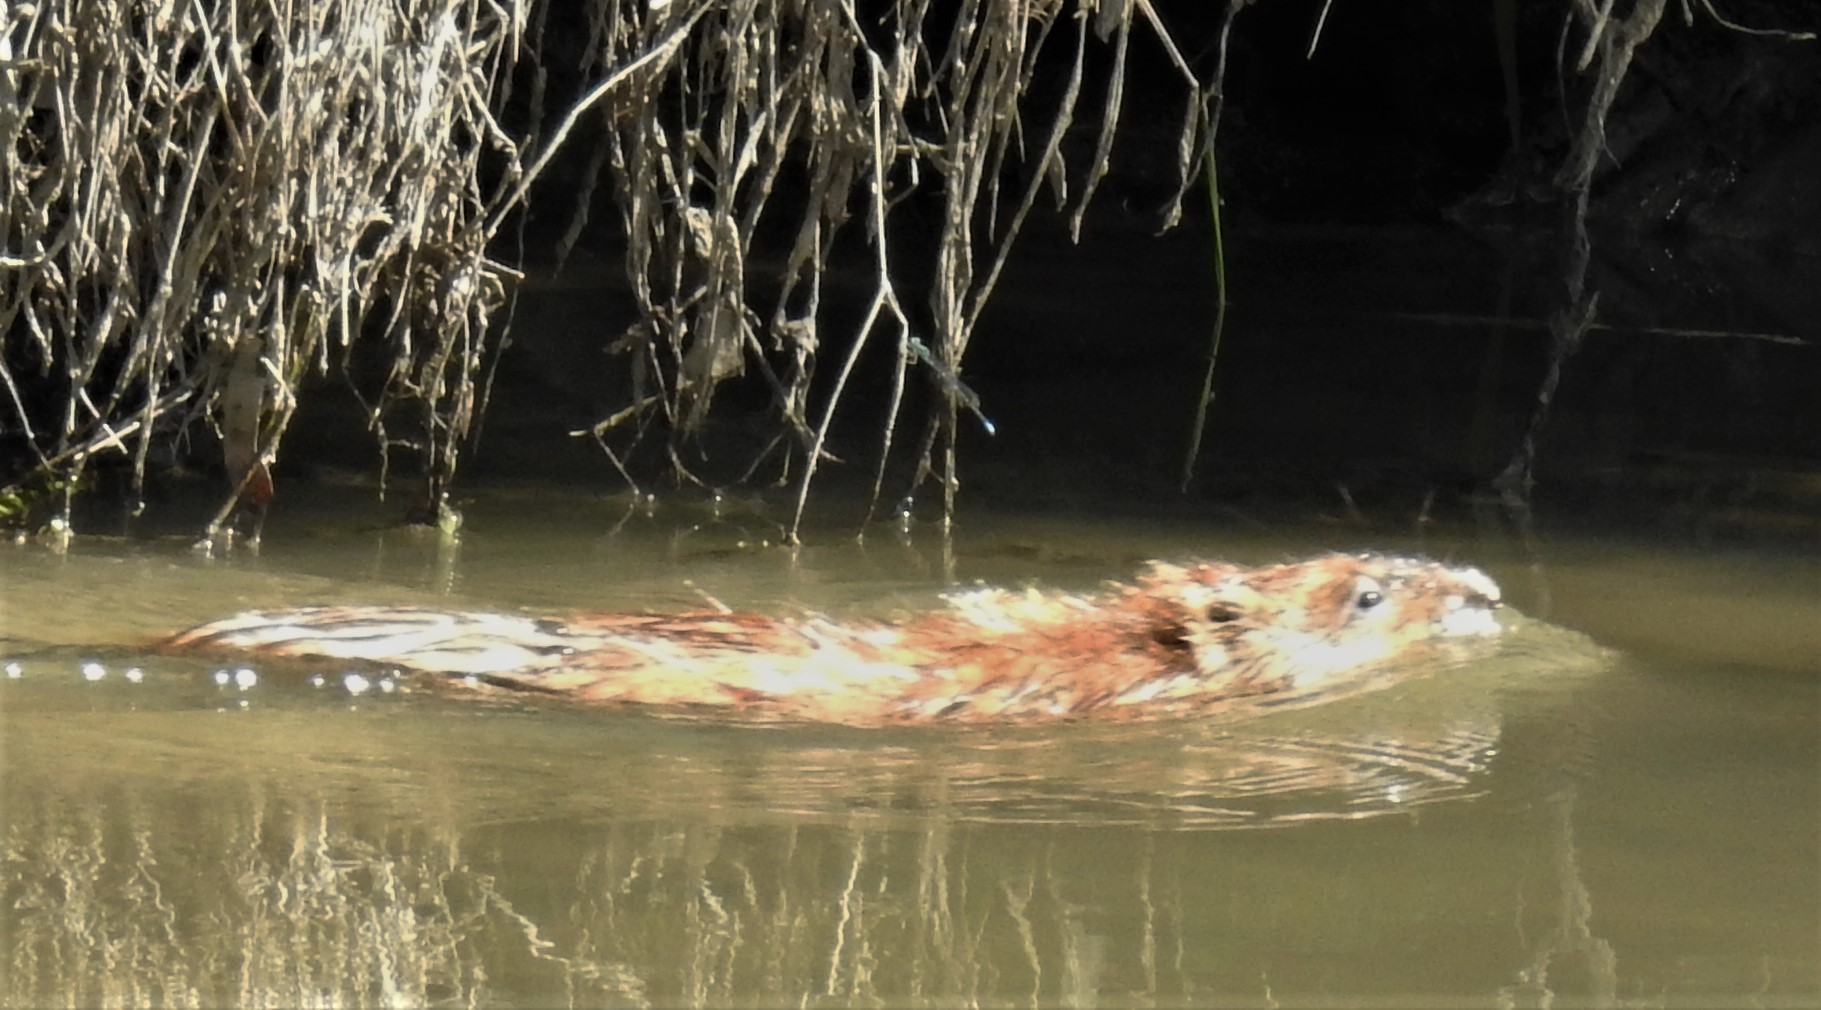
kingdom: Animalia
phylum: Chordata
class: Mammalia
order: Rodentia
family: Cricetidae
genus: Ondatra
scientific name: Ondatra zibethicus
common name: Muskrat
